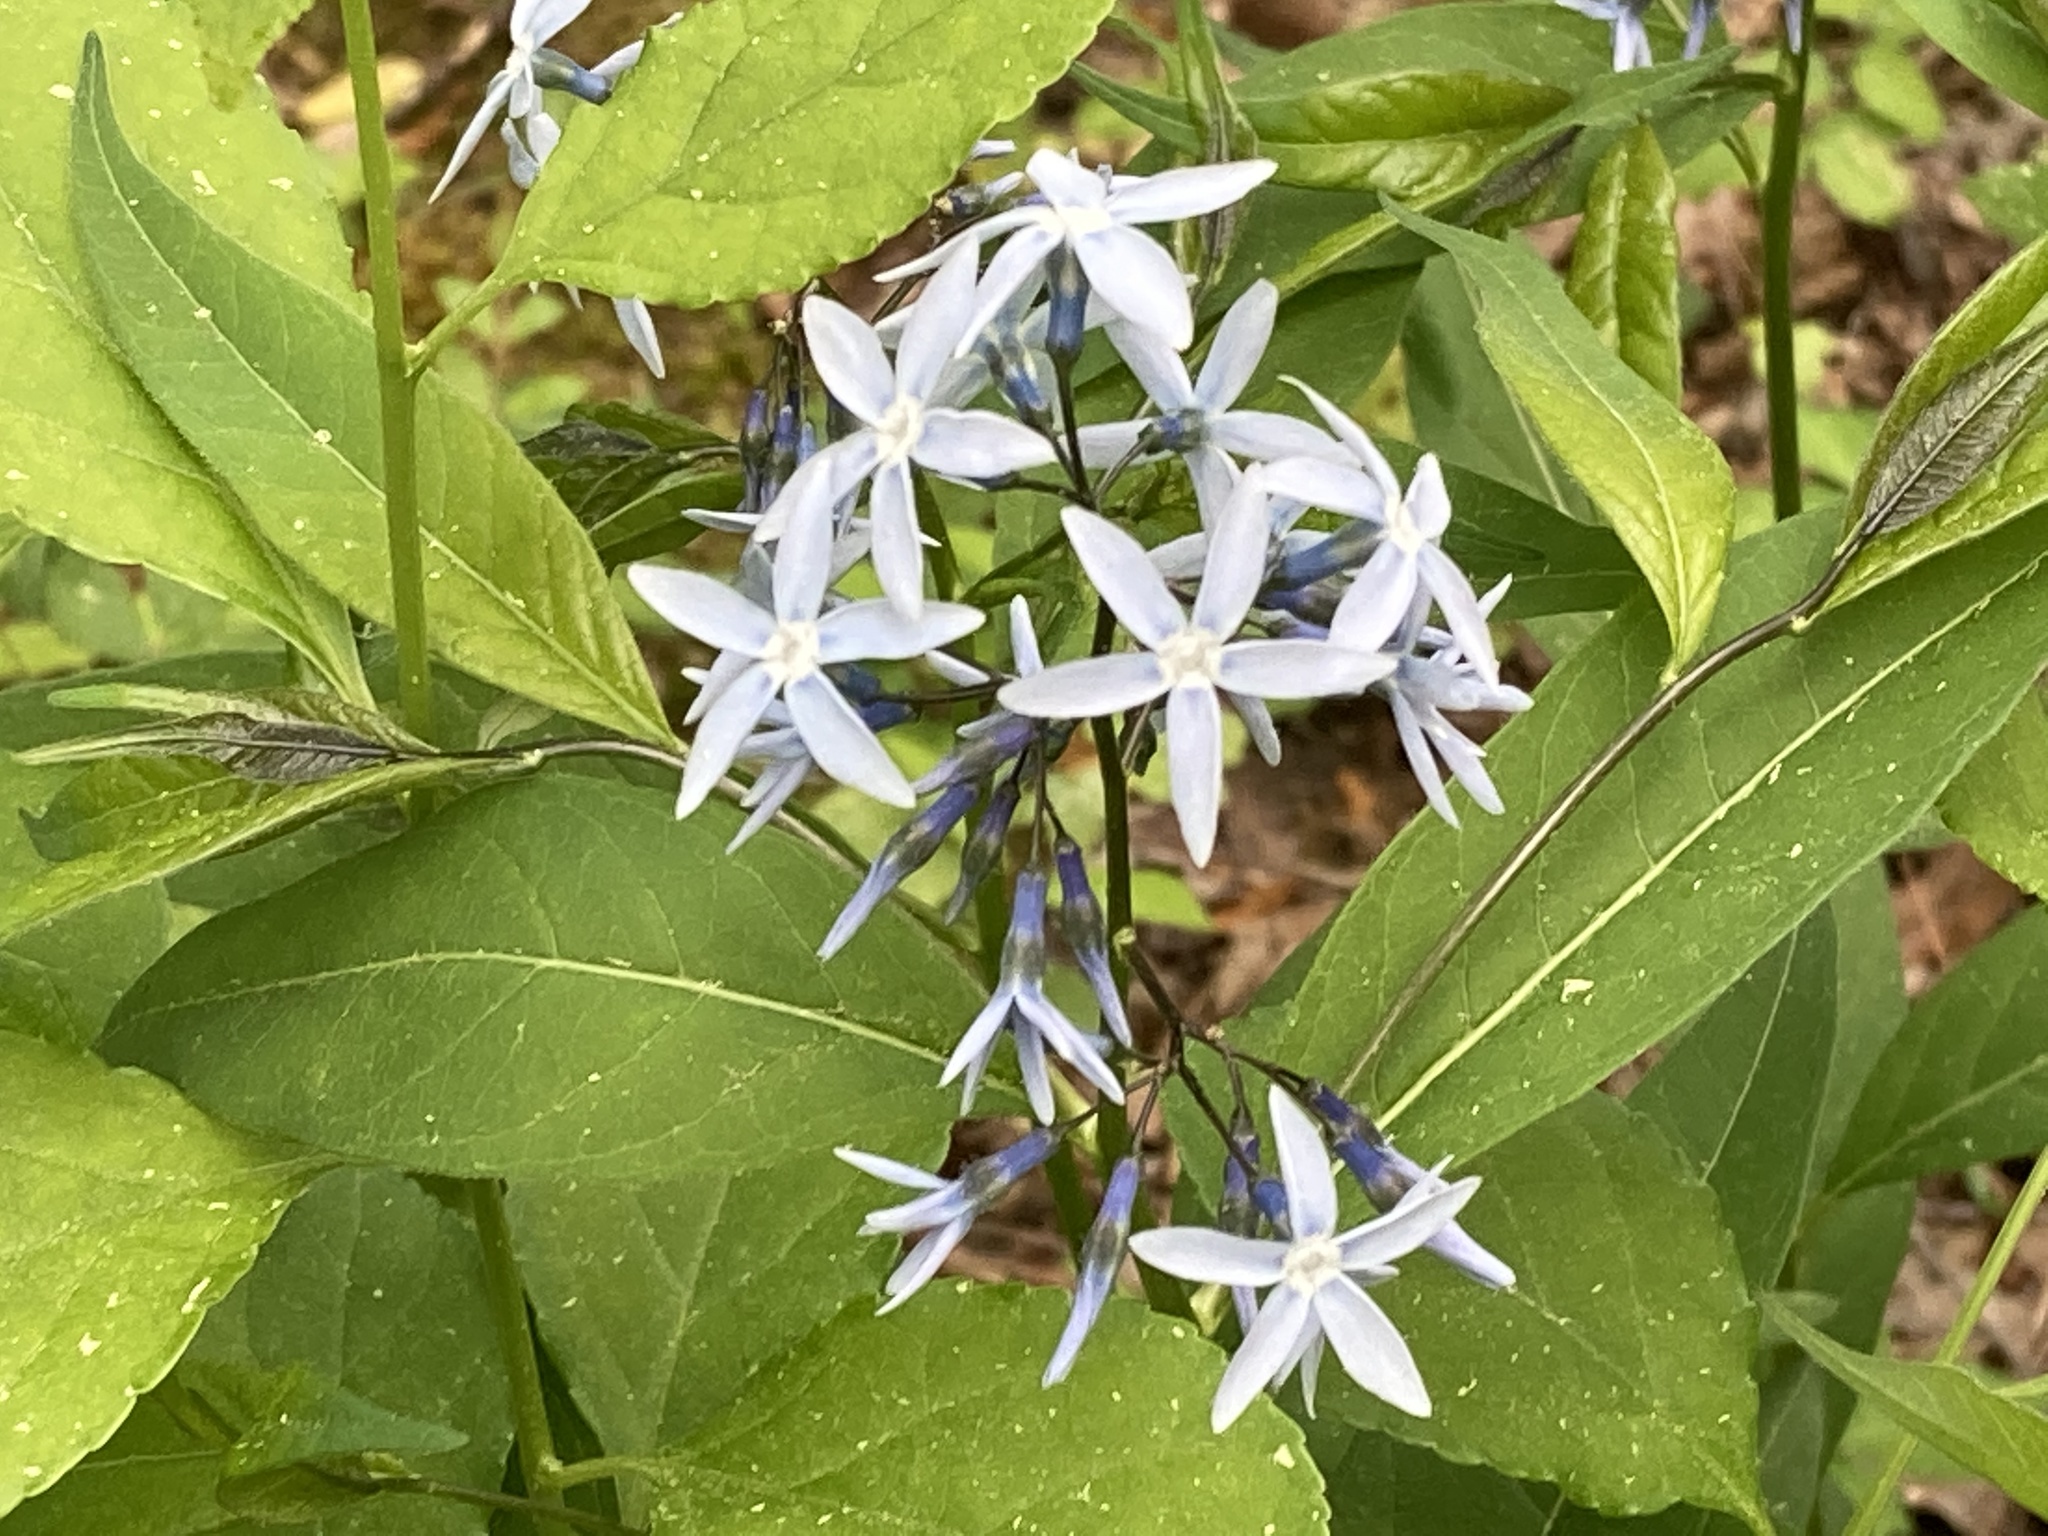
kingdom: Plantae
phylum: Tracheophyta
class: Magnoliopsida
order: Gentianales
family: Apocynaceae
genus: Amsonia
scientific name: Amsonia tabernaemontana
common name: Texas-star
